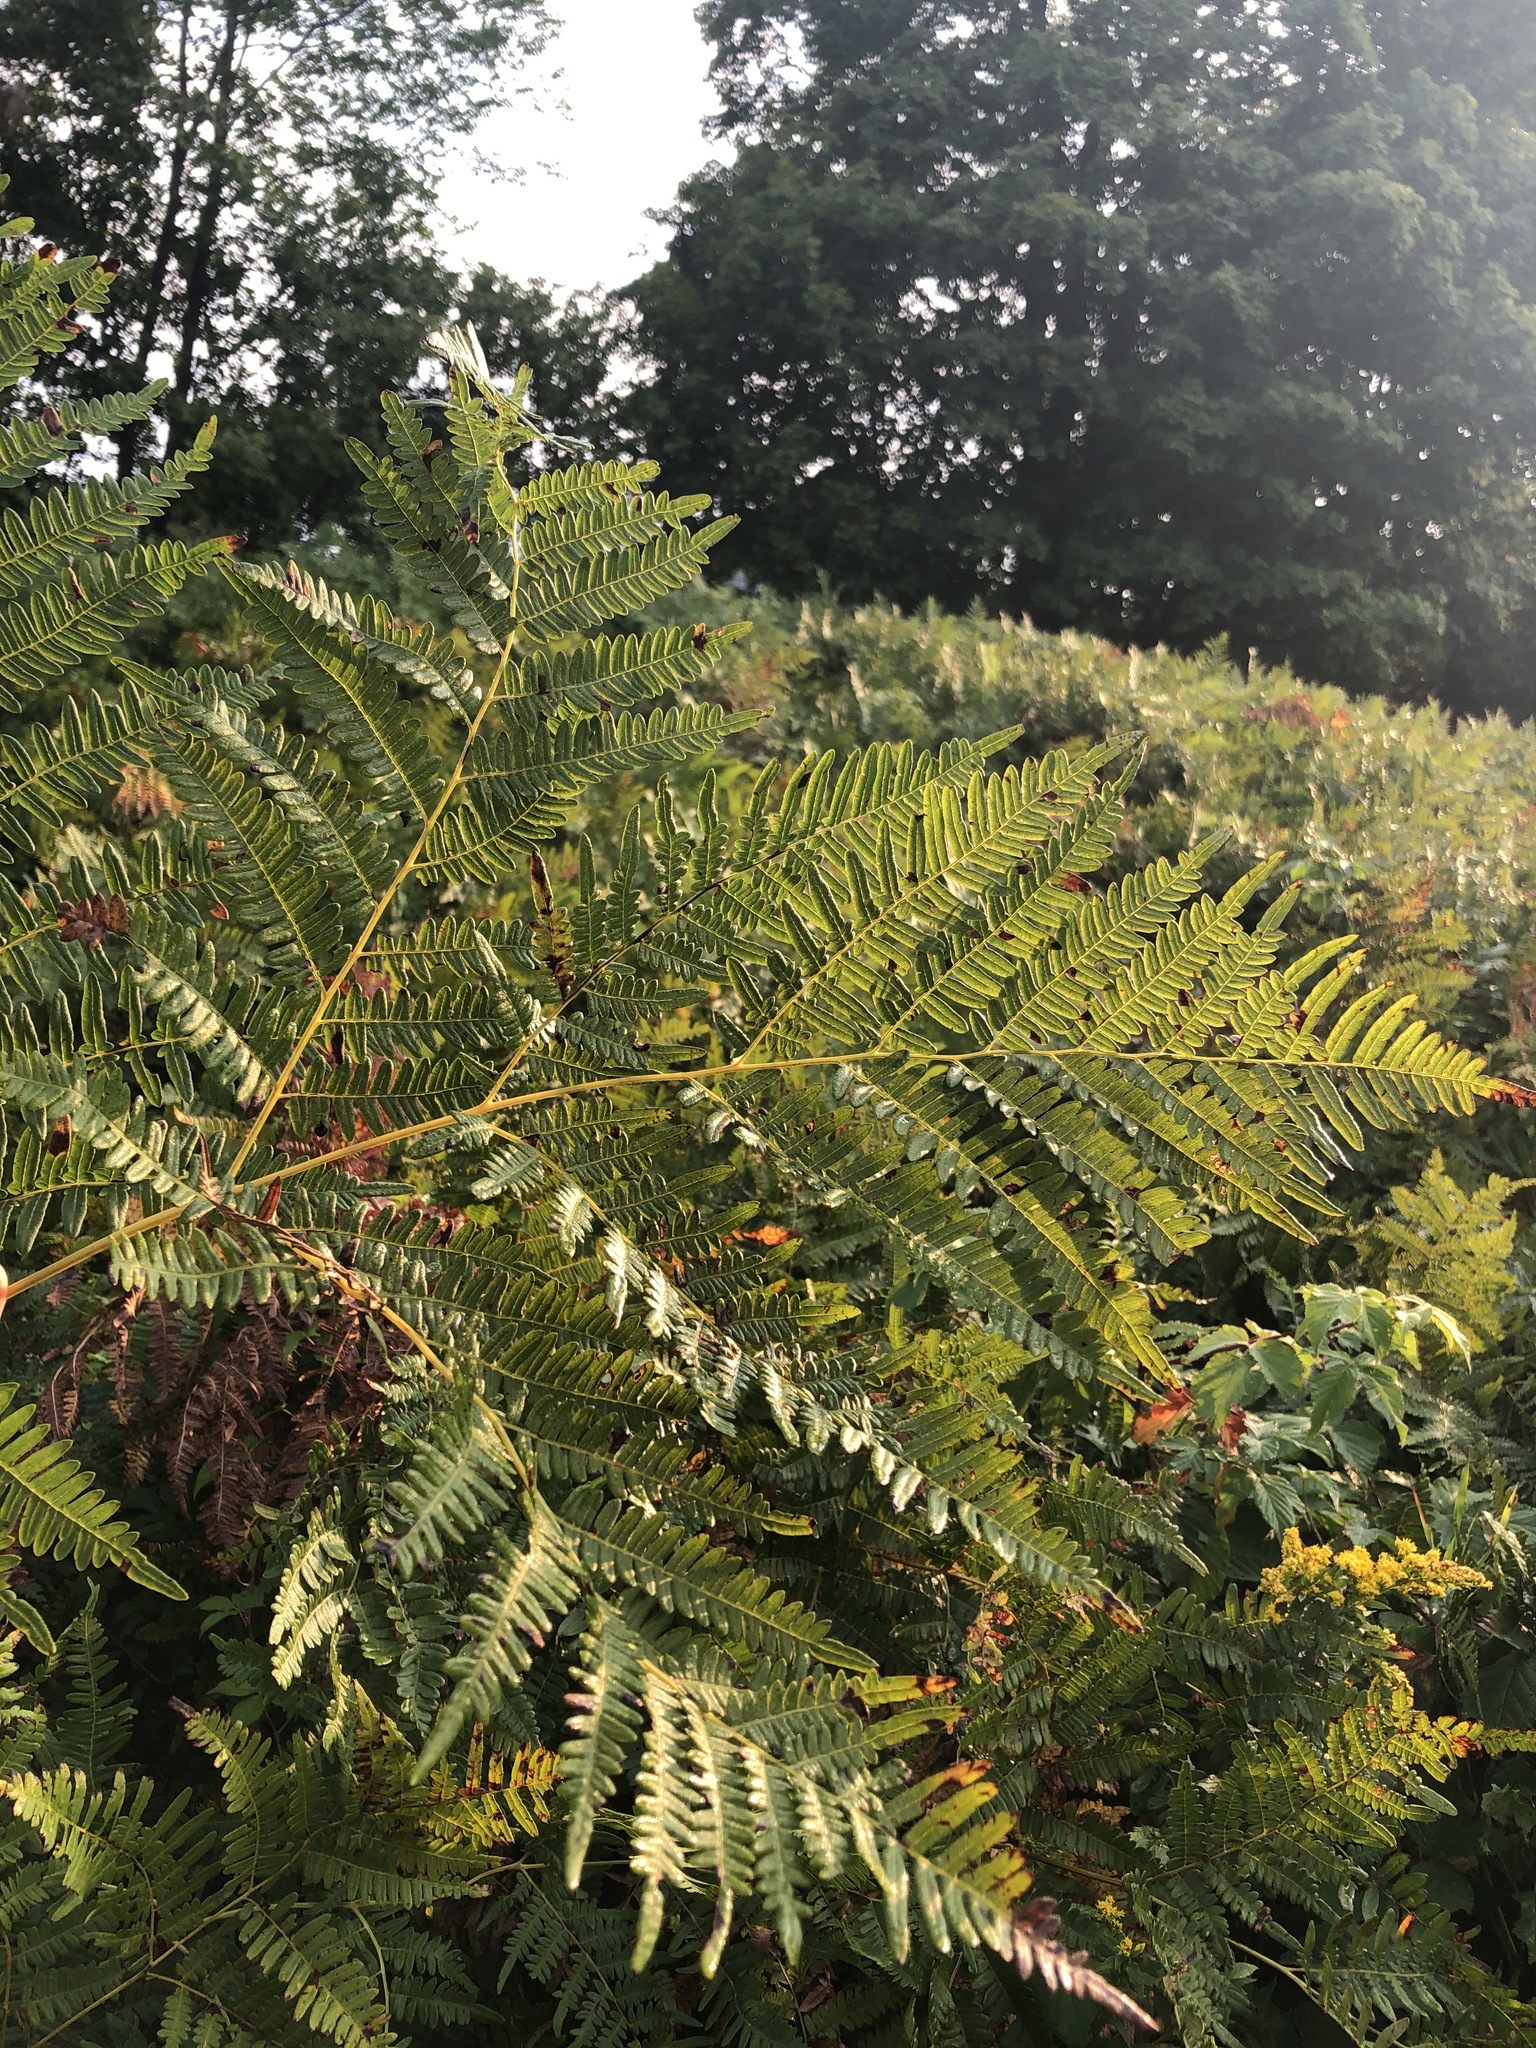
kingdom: Plantae
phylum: Tracheophyta
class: Polypodiopsida
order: Polypodiales
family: Dennstaedtiaceae
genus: Pteridium
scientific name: Pteridium aquilinum
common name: Bracken
